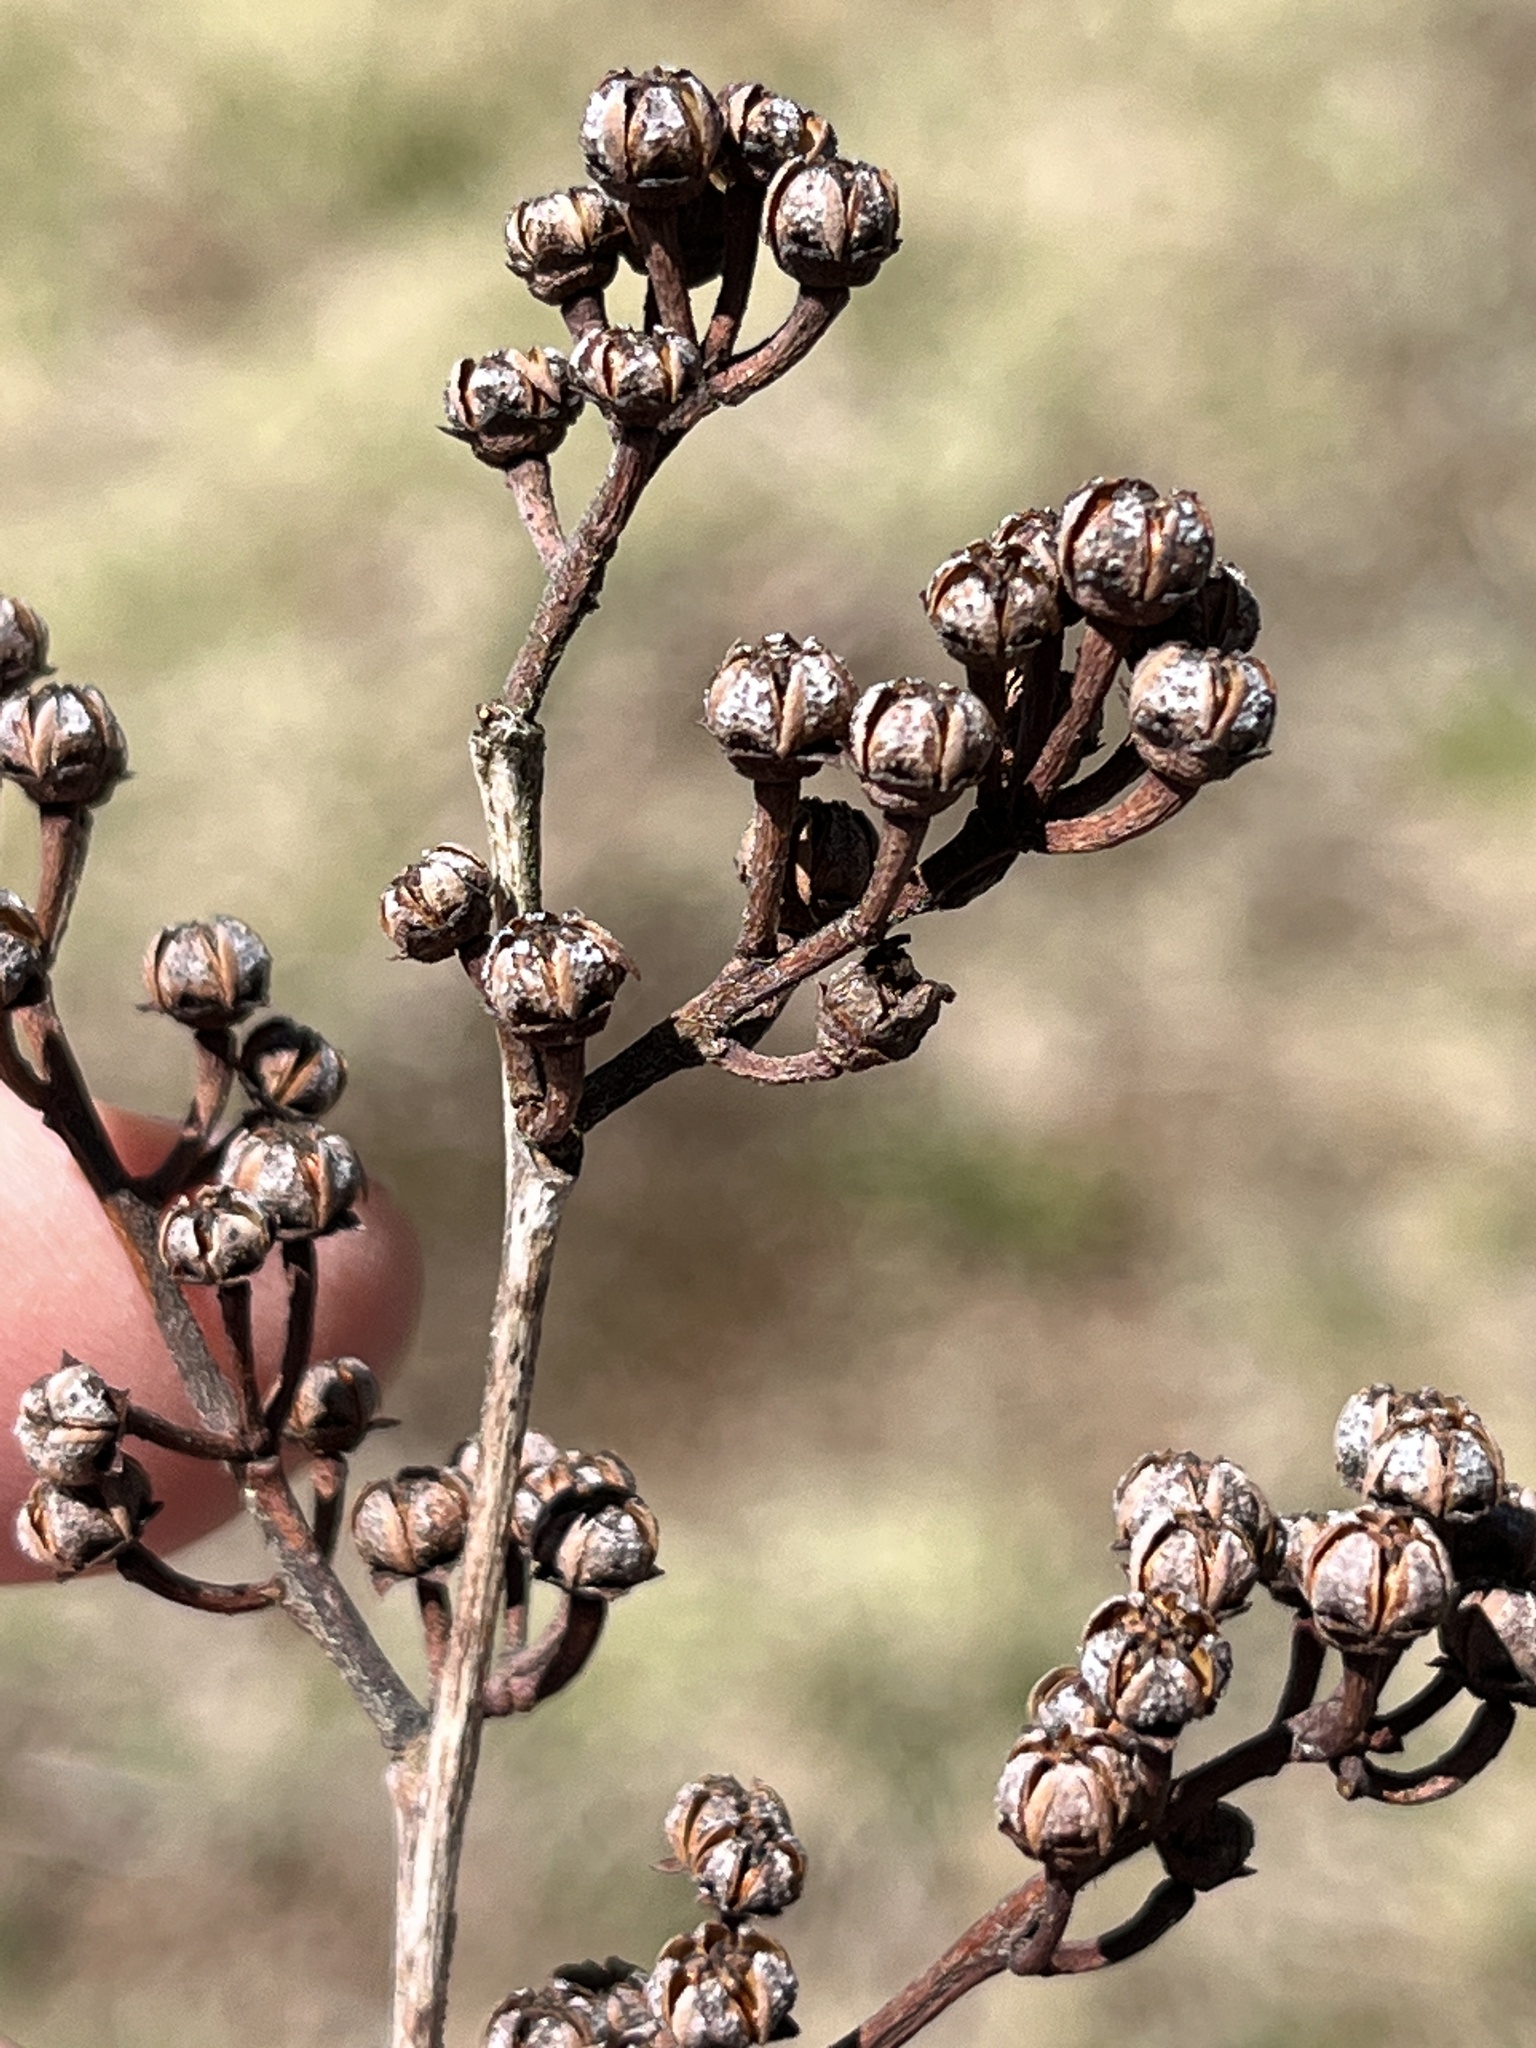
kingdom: Plantae
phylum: Tracheophyta
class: Magnoliopsida
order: Ericales
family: Ericaceae
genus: Lyonia
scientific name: Lyonia ligustrina
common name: Maleberry
